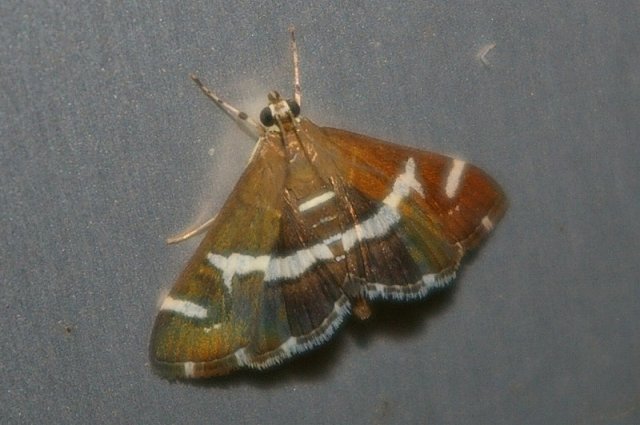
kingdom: Animalia
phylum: Arthropoda
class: Insecta
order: Lepidoptera
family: Crambidae
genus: Spoladea
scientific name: Spoladea recurvalis
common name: Beet webworm moth
